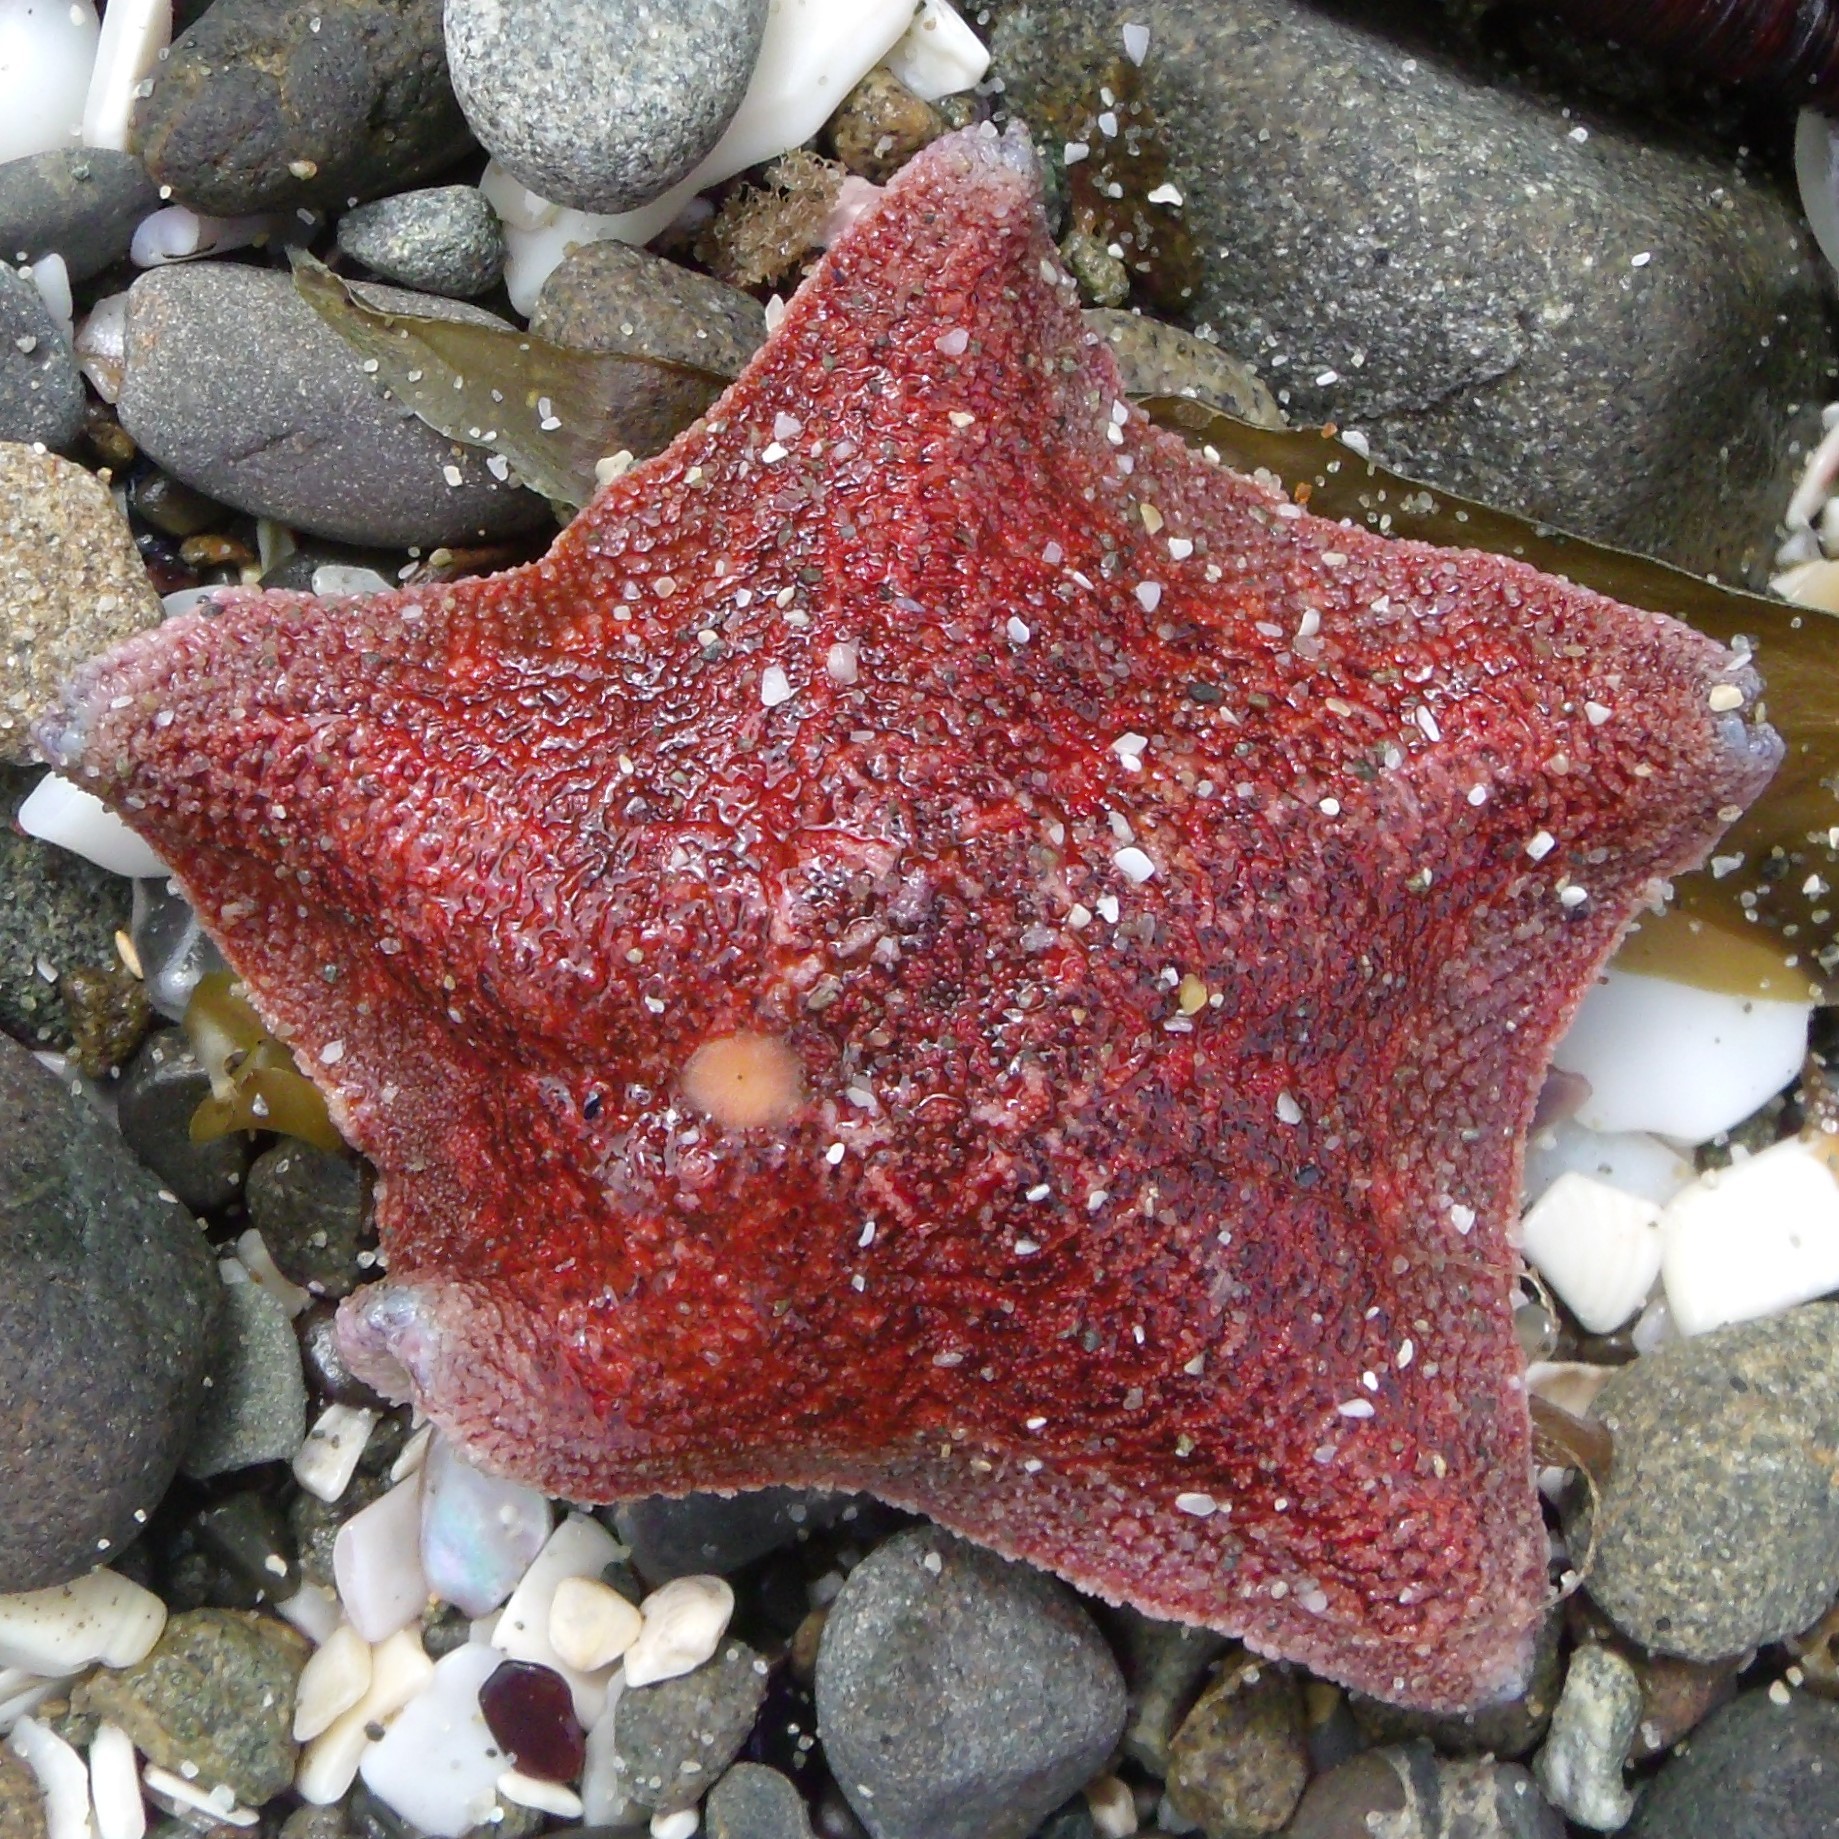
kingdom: Animalia
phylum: Echinodermata
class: Asteroidea
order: Valvatida
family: Asterinidae
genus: Patiriella
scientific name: Patiriella regularis
